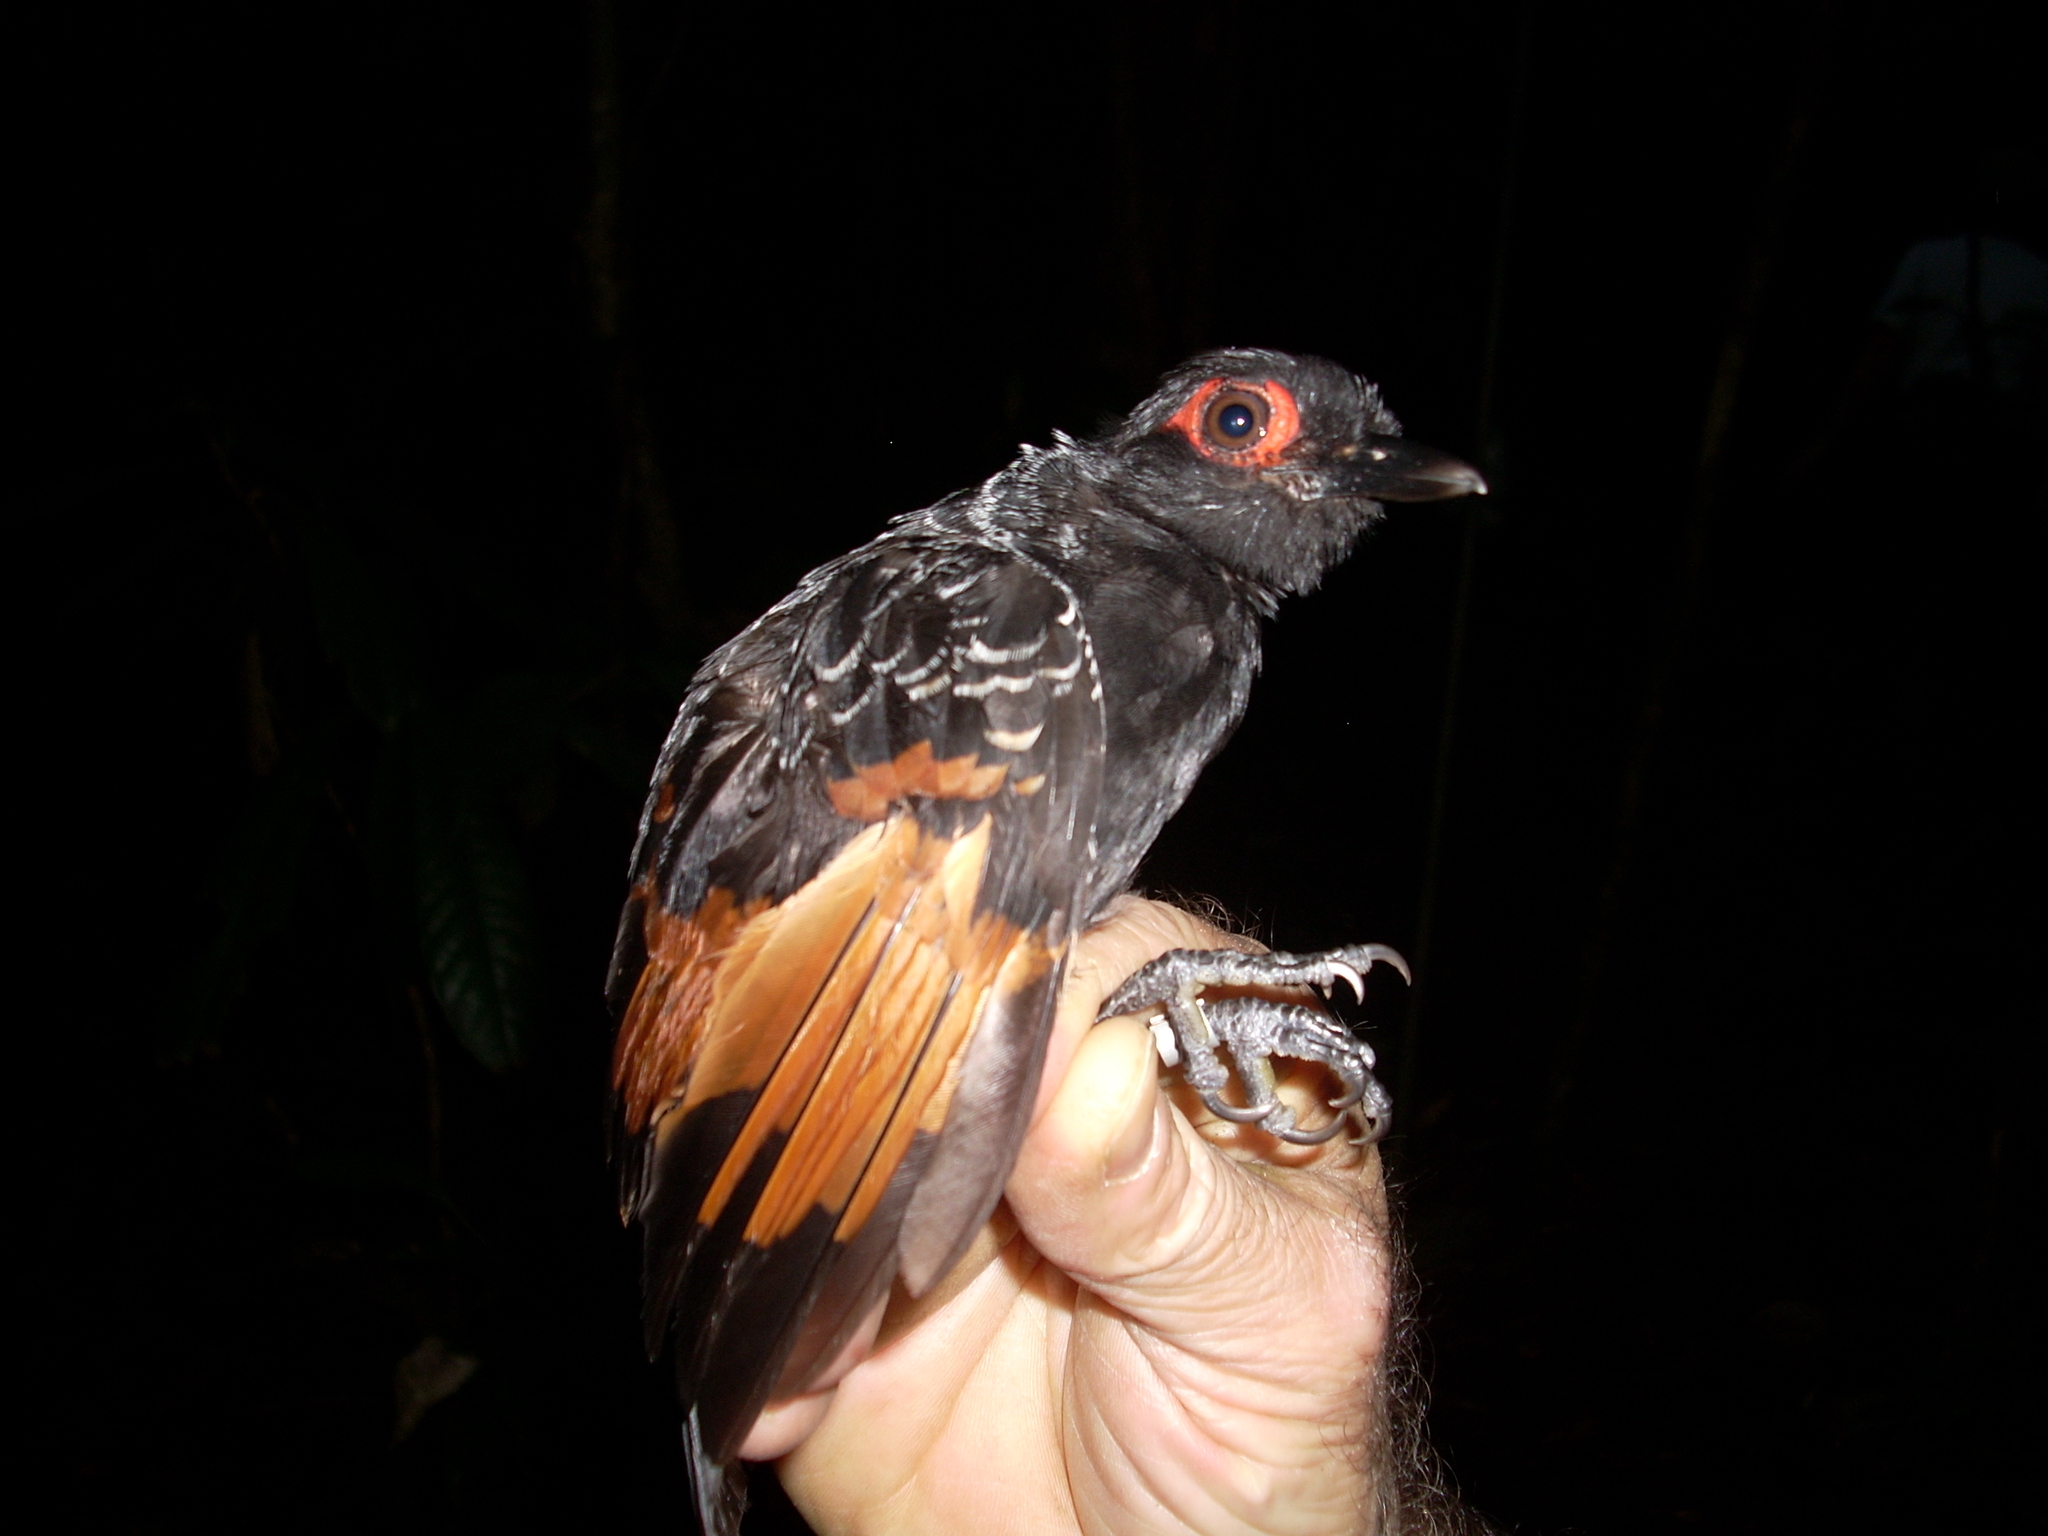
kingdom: Animalia
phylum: Chordata
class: Aves
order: Passeriformes
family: Thamnophilidae
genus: Phlegopsis
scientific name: Phlegopsis erythroptera
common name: Reddish-winged bare-eye
